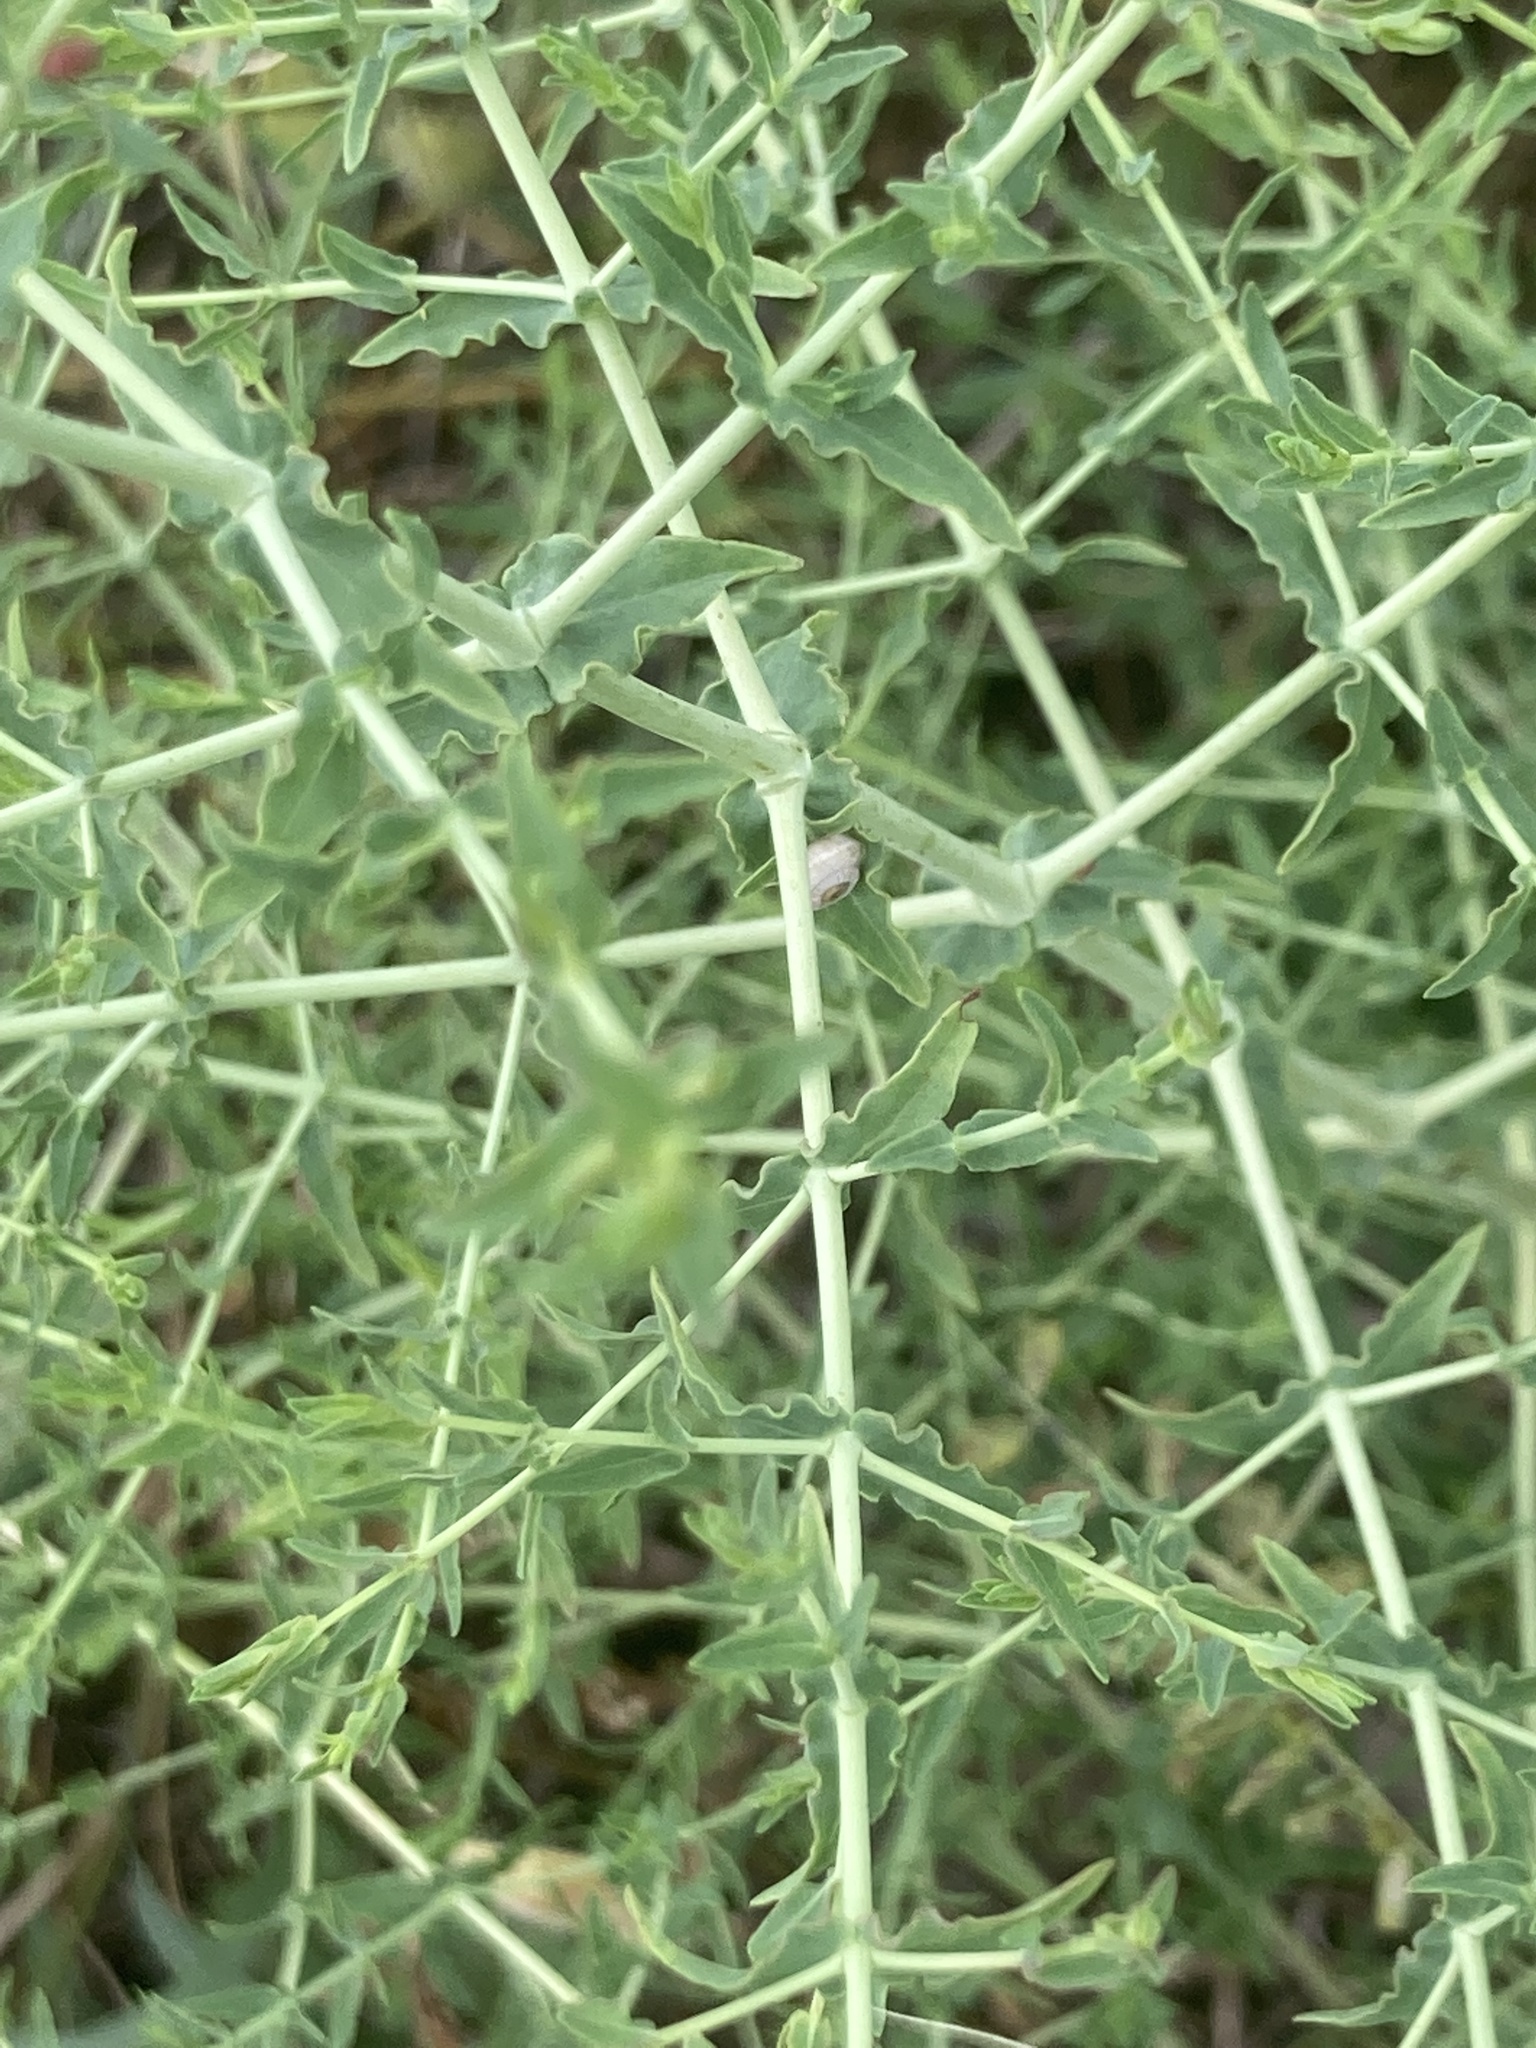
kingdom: Plantae
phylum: Tracheophyta
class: Magnoliopsida
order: Malpighiales
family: Hypericaceae
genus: Hypericum
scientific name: Hypericum triquetrifolium
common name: Tangled hypericum
